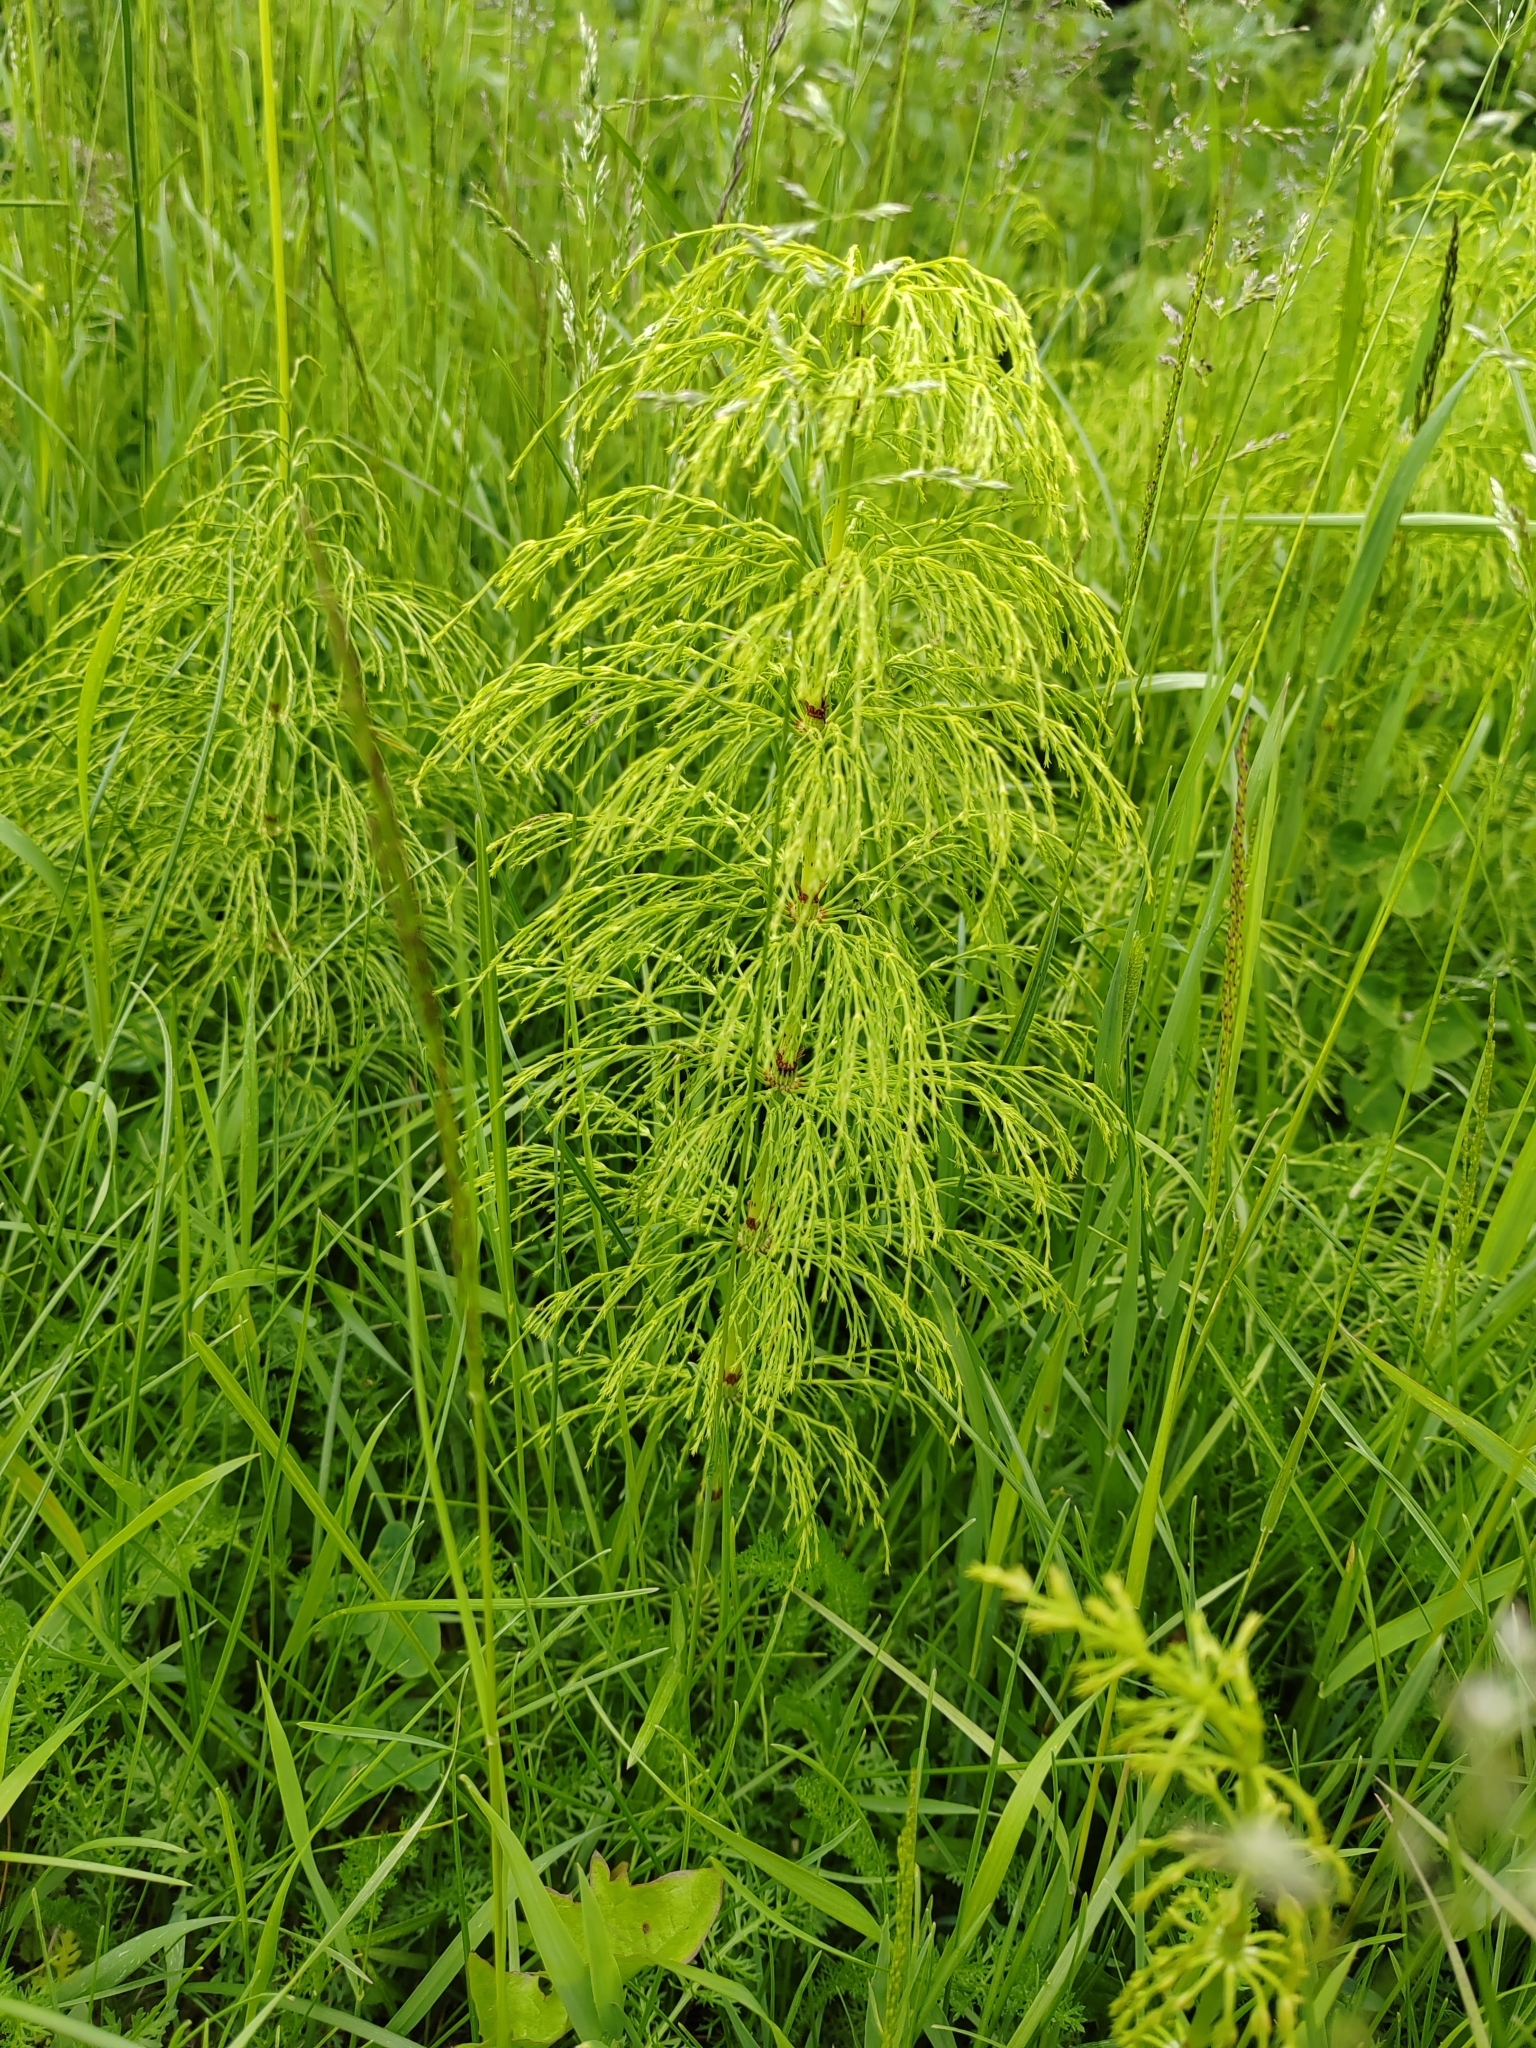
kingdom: Plantae
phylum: Tracheophyta
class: Polypodiopsida
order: Equisetales
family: Equisetaceae
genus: Equisetum
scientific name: Equisetum sylvaticum
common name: Wood horsetail
